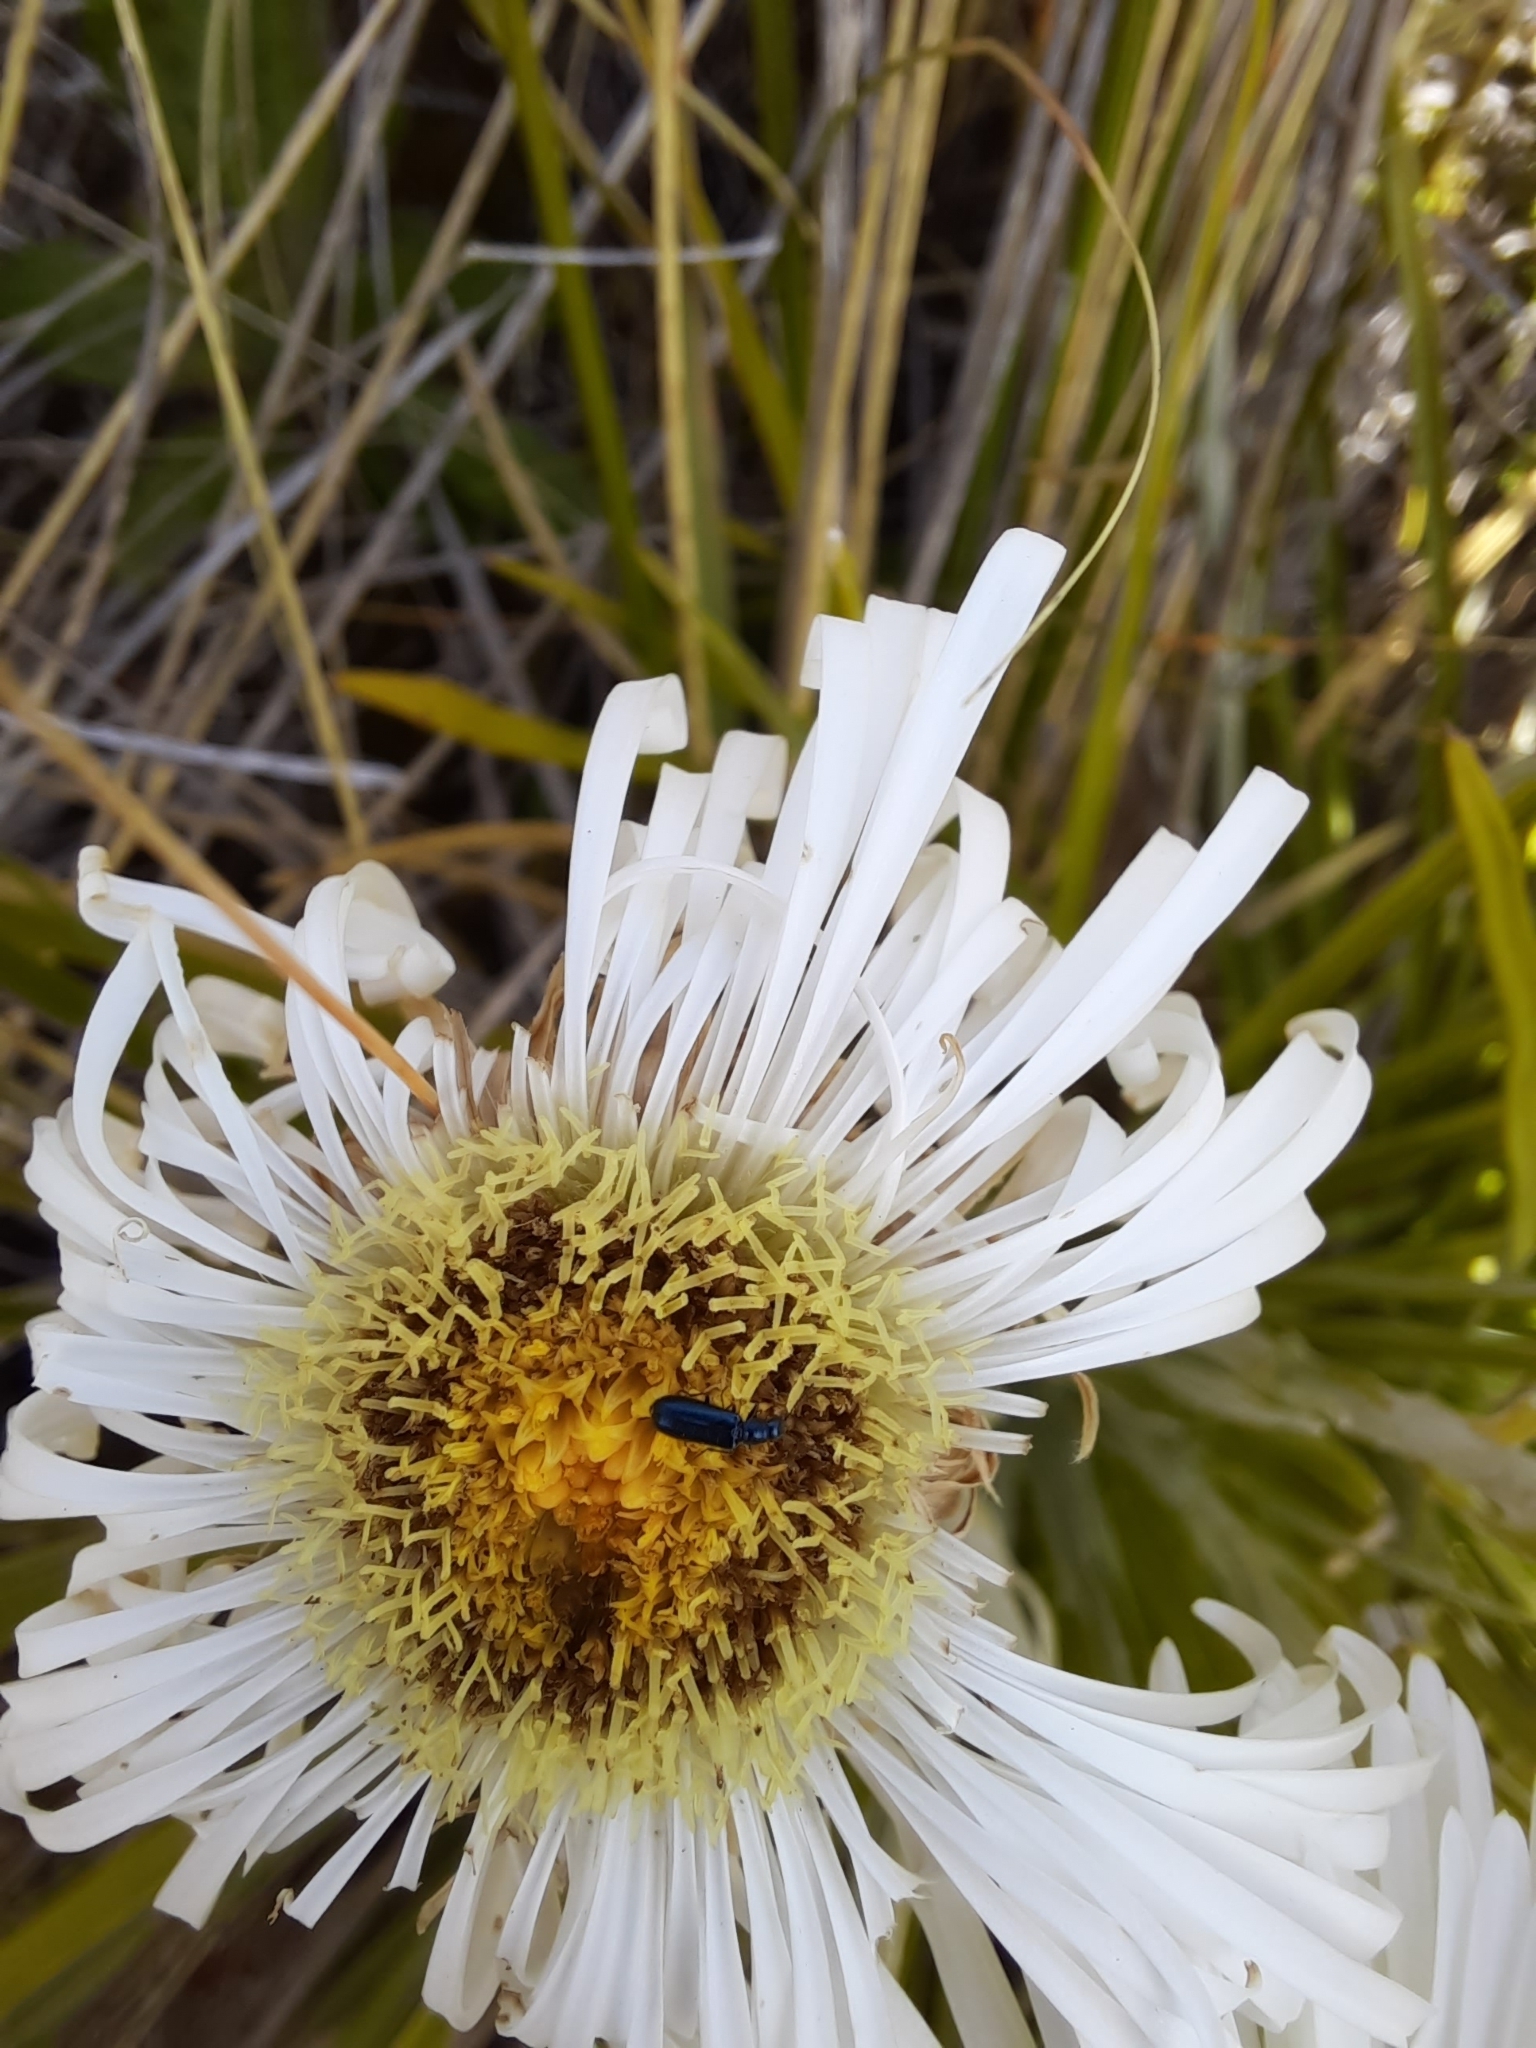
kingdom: Plantae
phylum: Tracheophyta
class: Magnoliopsida
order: Asterales
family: Asteraceae
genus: Celmisia
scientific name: Celmisia lyallii
